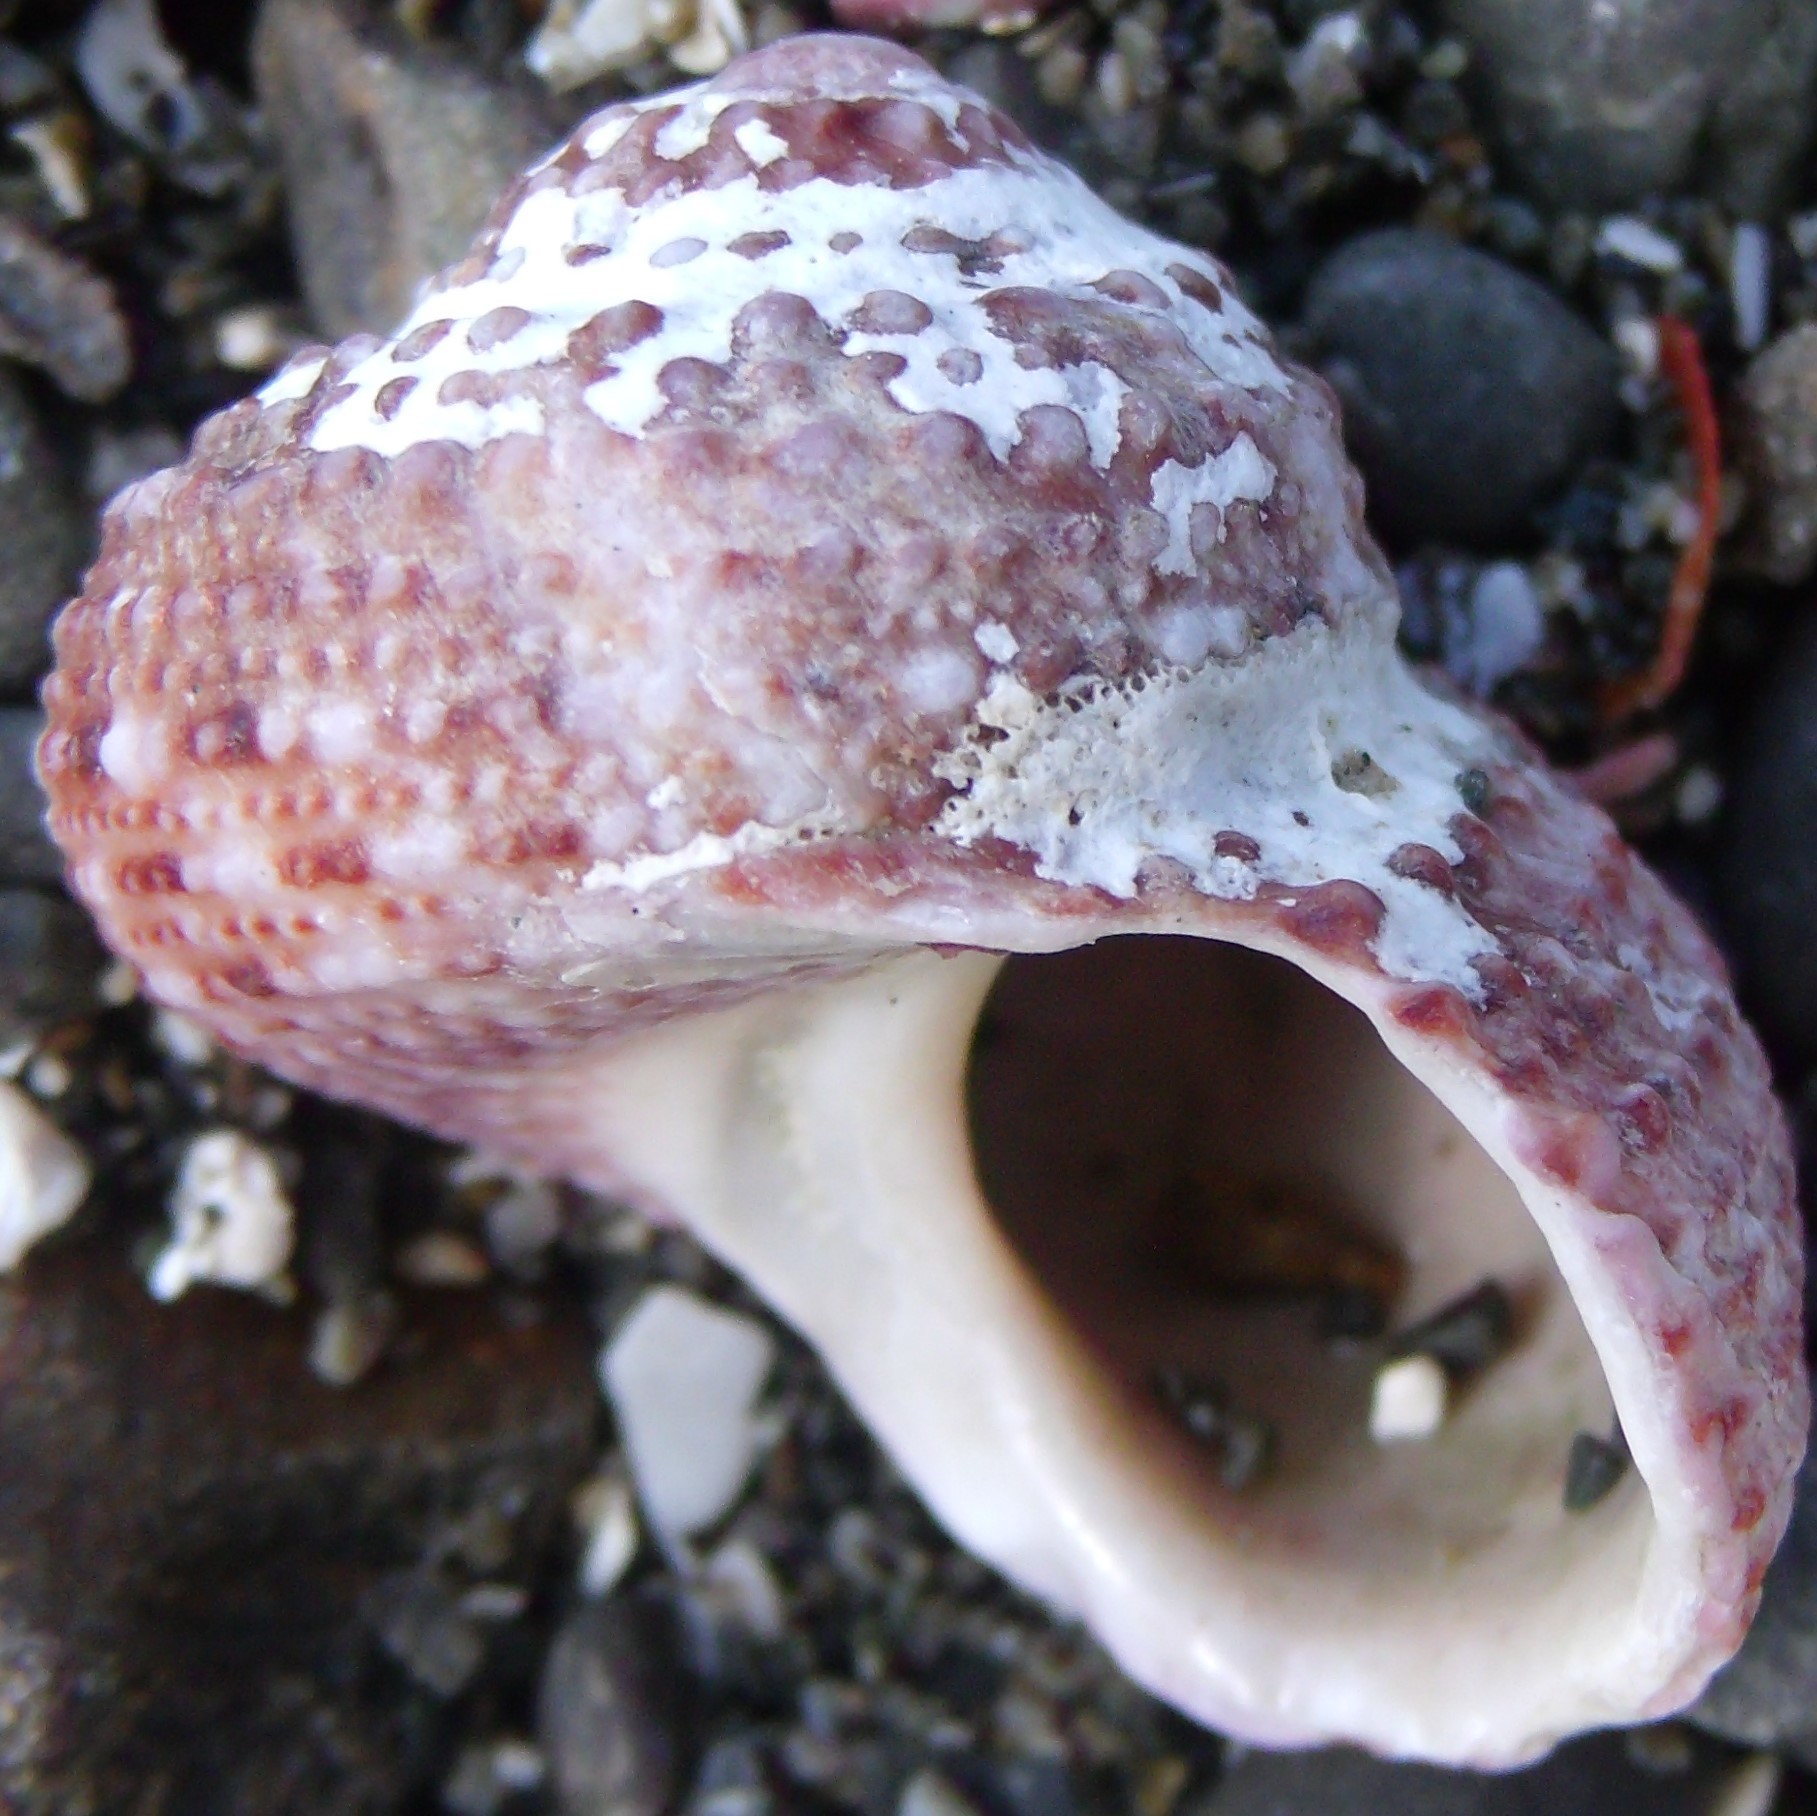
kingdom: Animalia
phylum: Mollusca
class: Gastropoda
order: Trochida
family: Turbinidae
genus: Modelia
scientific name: Modelia granosa
